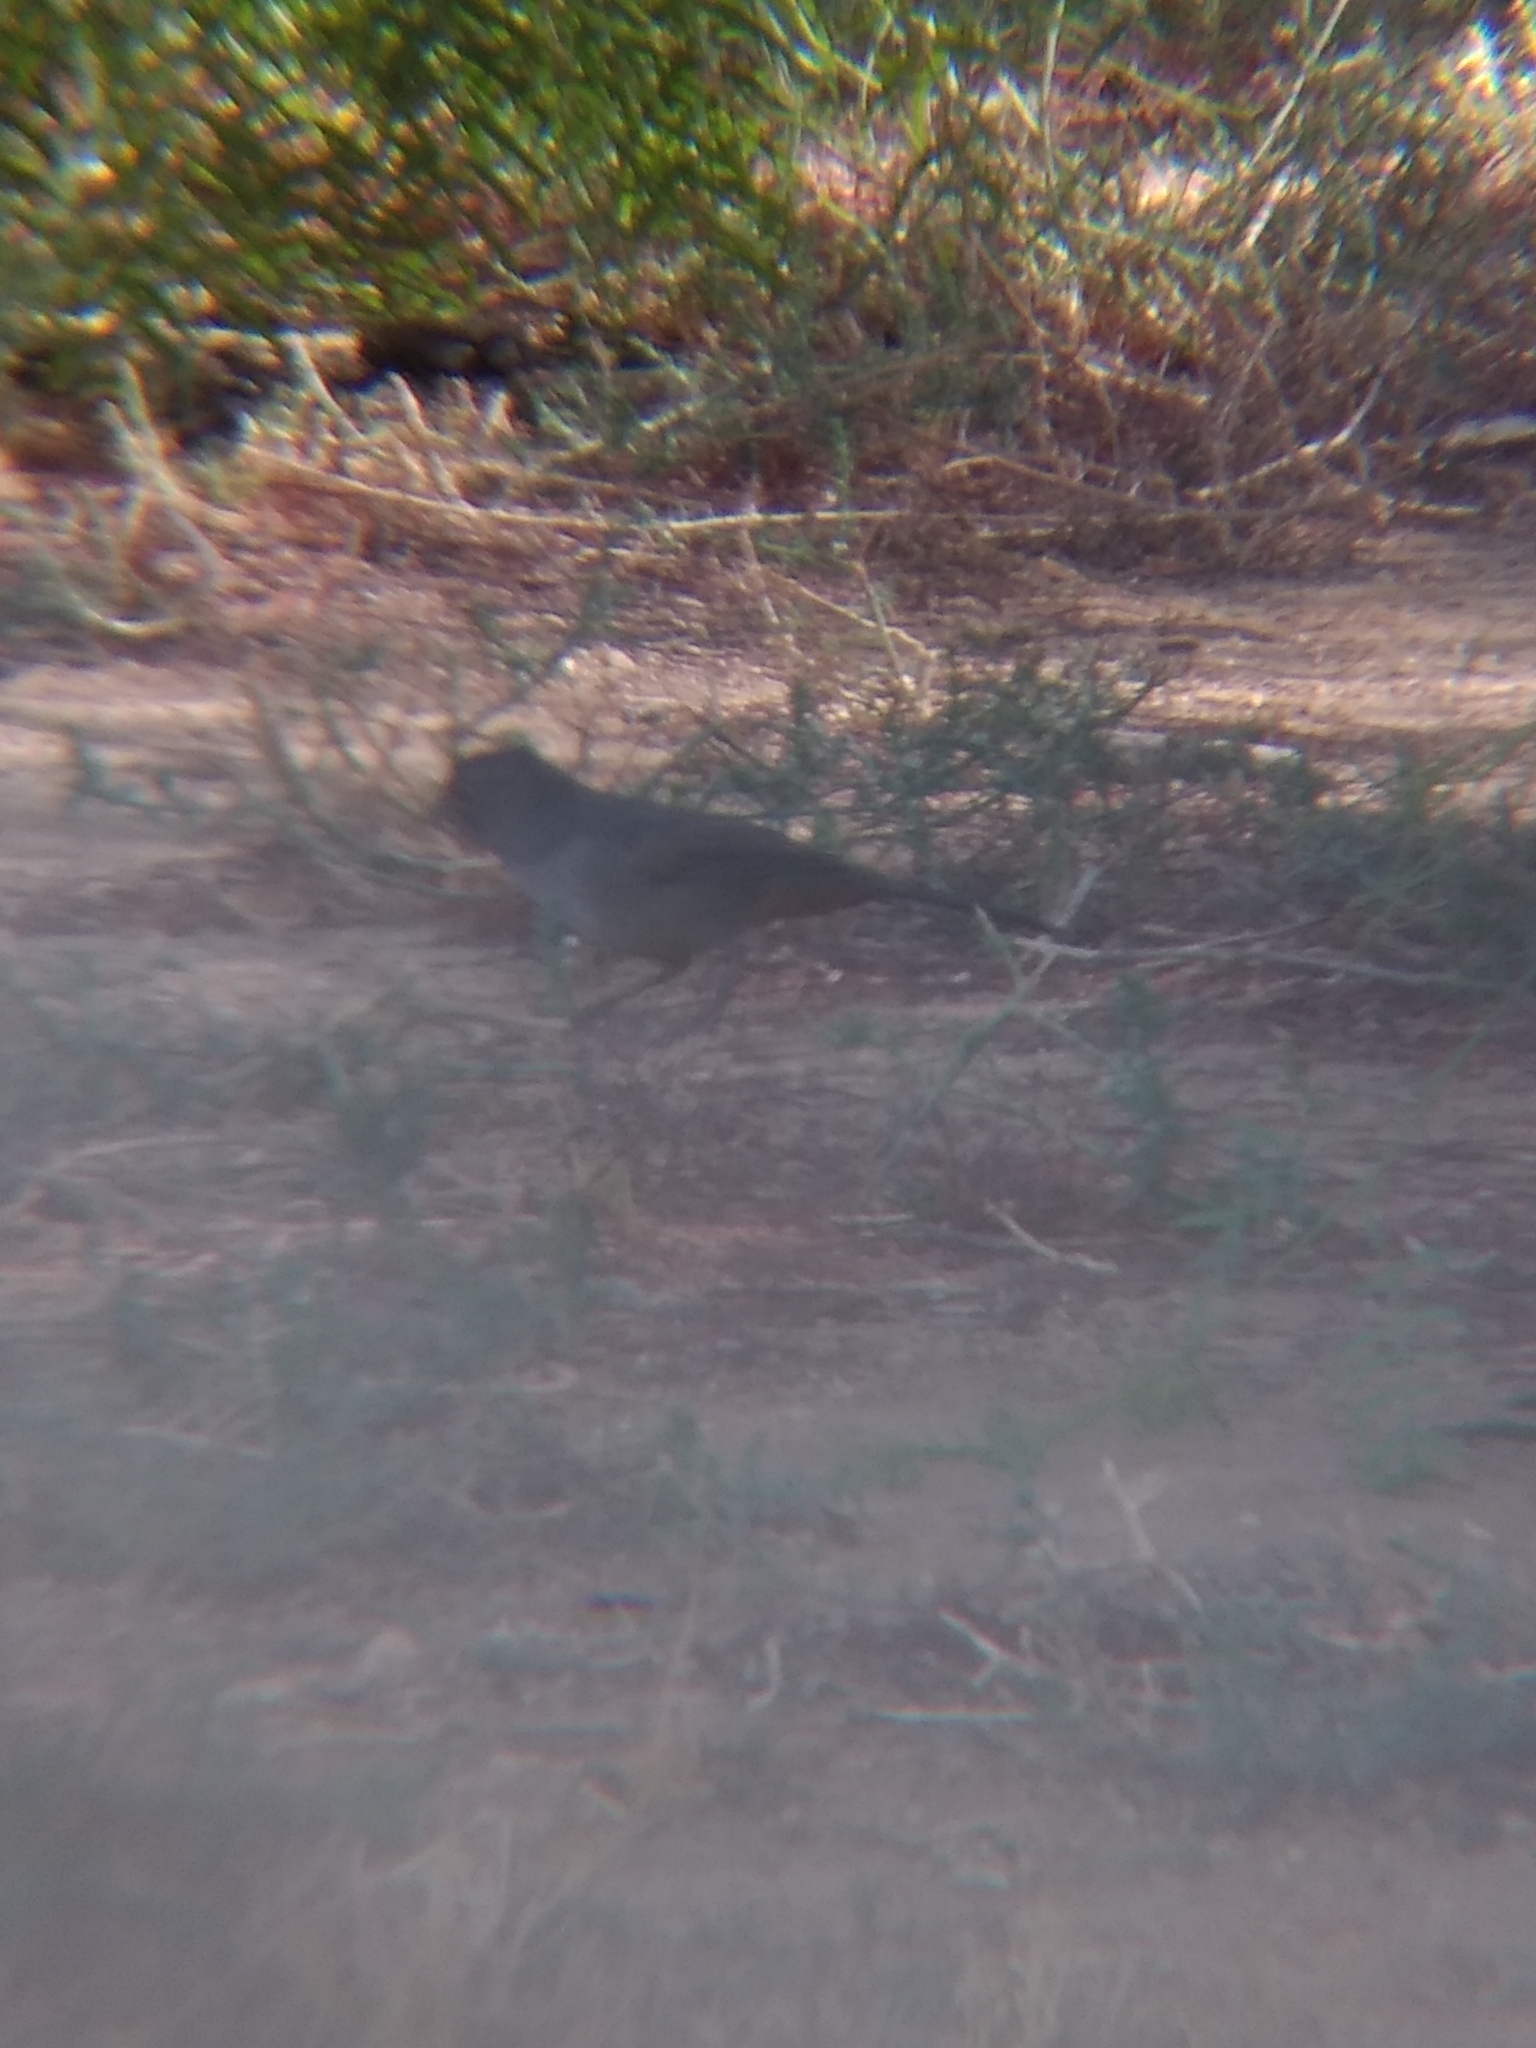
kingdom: Animalia
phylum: Chordata
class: Aves
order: Passeriformes
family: Passerellidae
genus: Melozone
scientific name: Melozone crissalis
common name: California towhee
